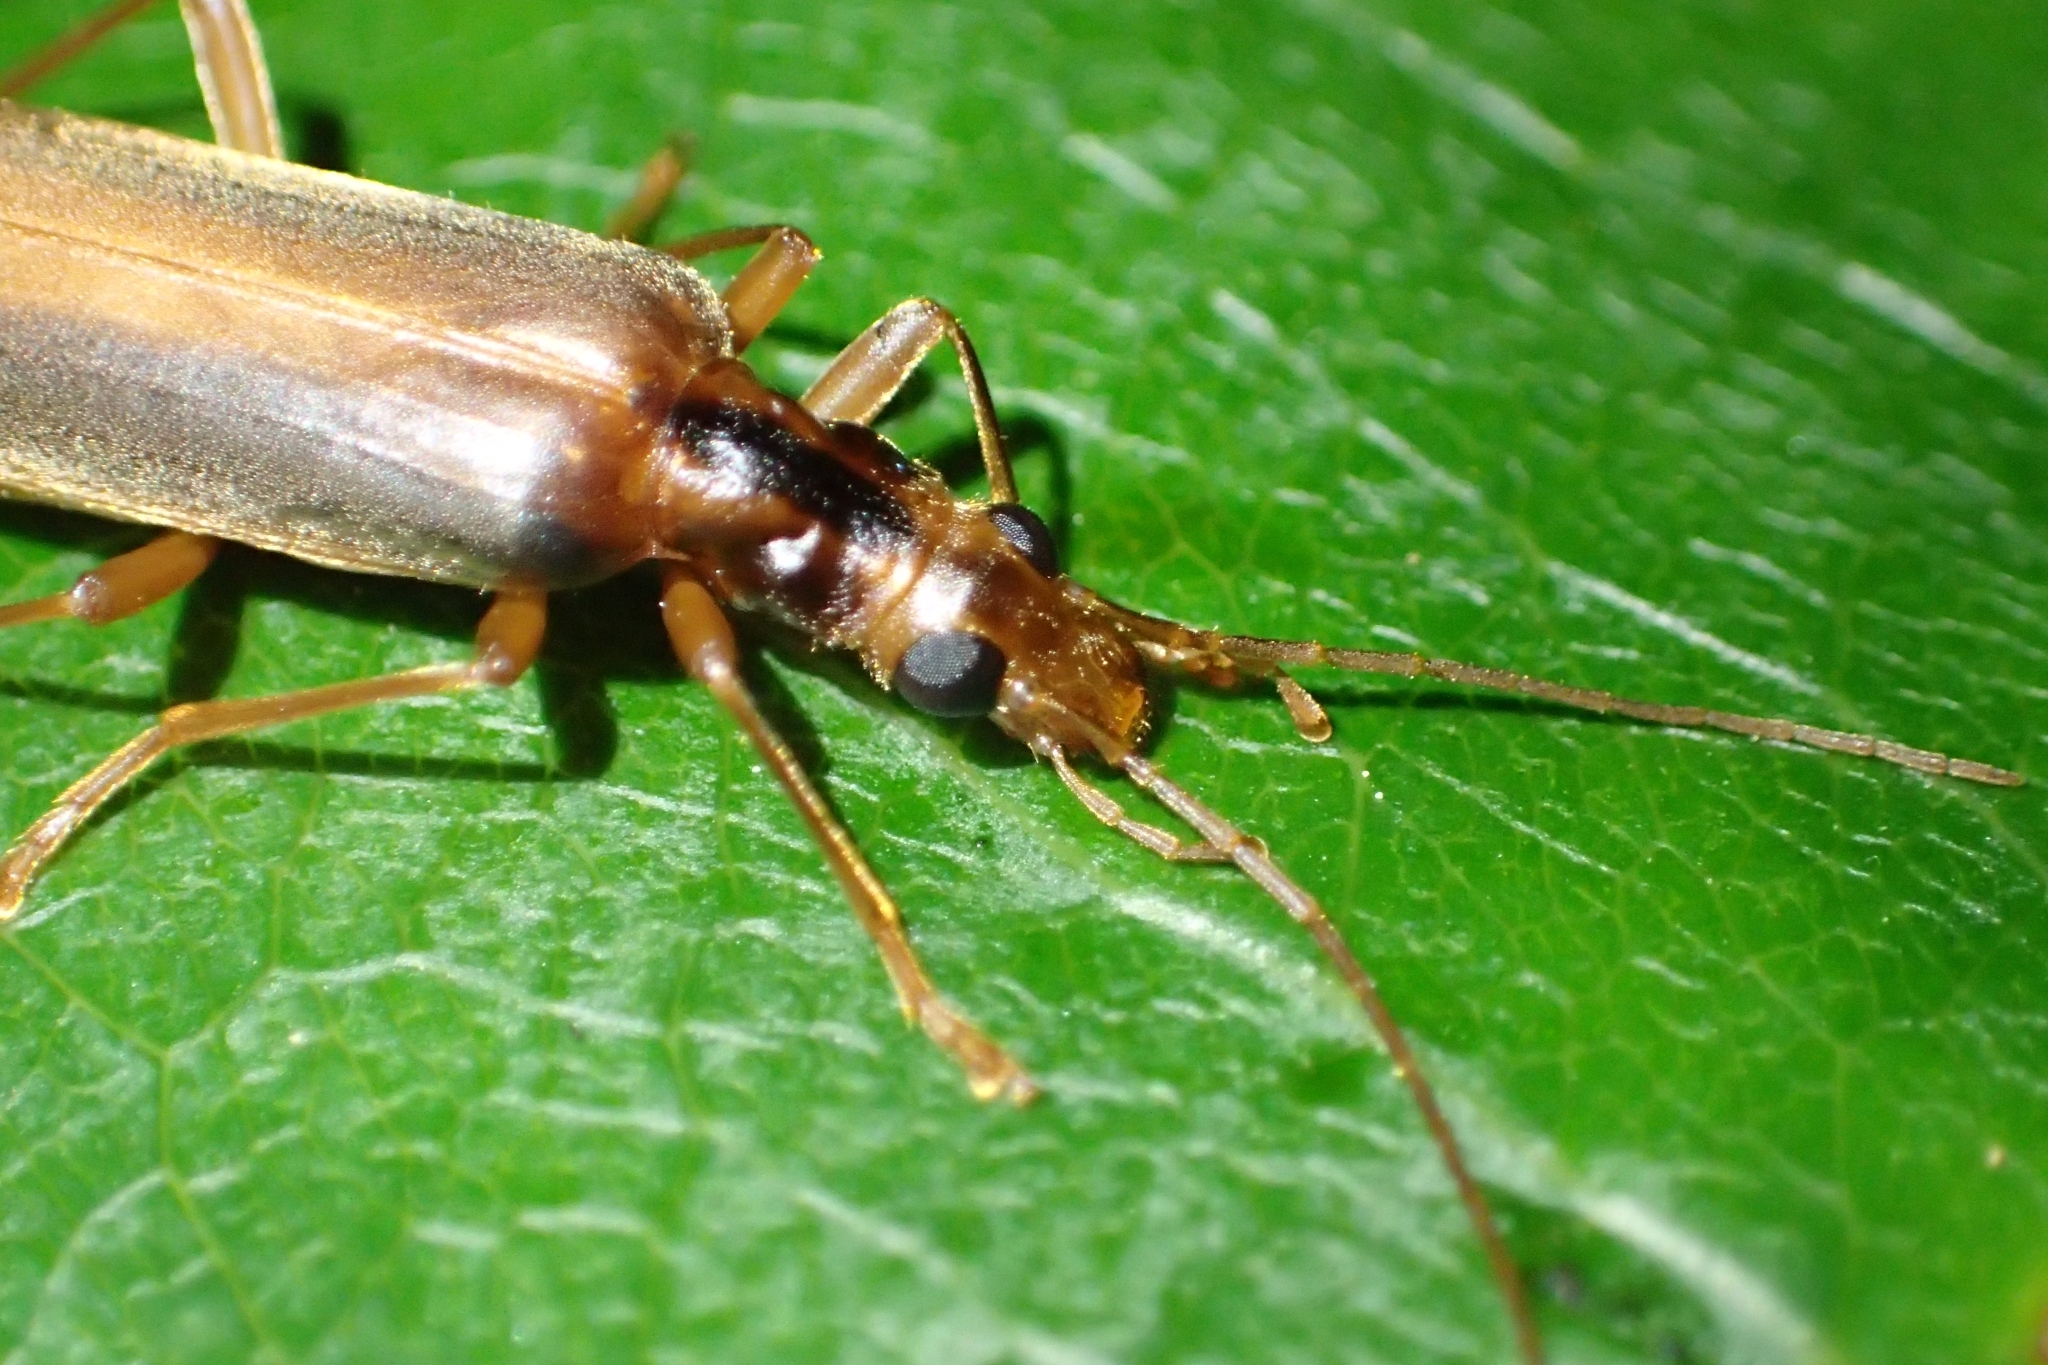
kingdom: Animalia
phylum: Arthropoda
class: Insecta
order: Coleoptera
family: Oedemeridae
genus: Thelyphassa
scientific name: Thelyphassa
